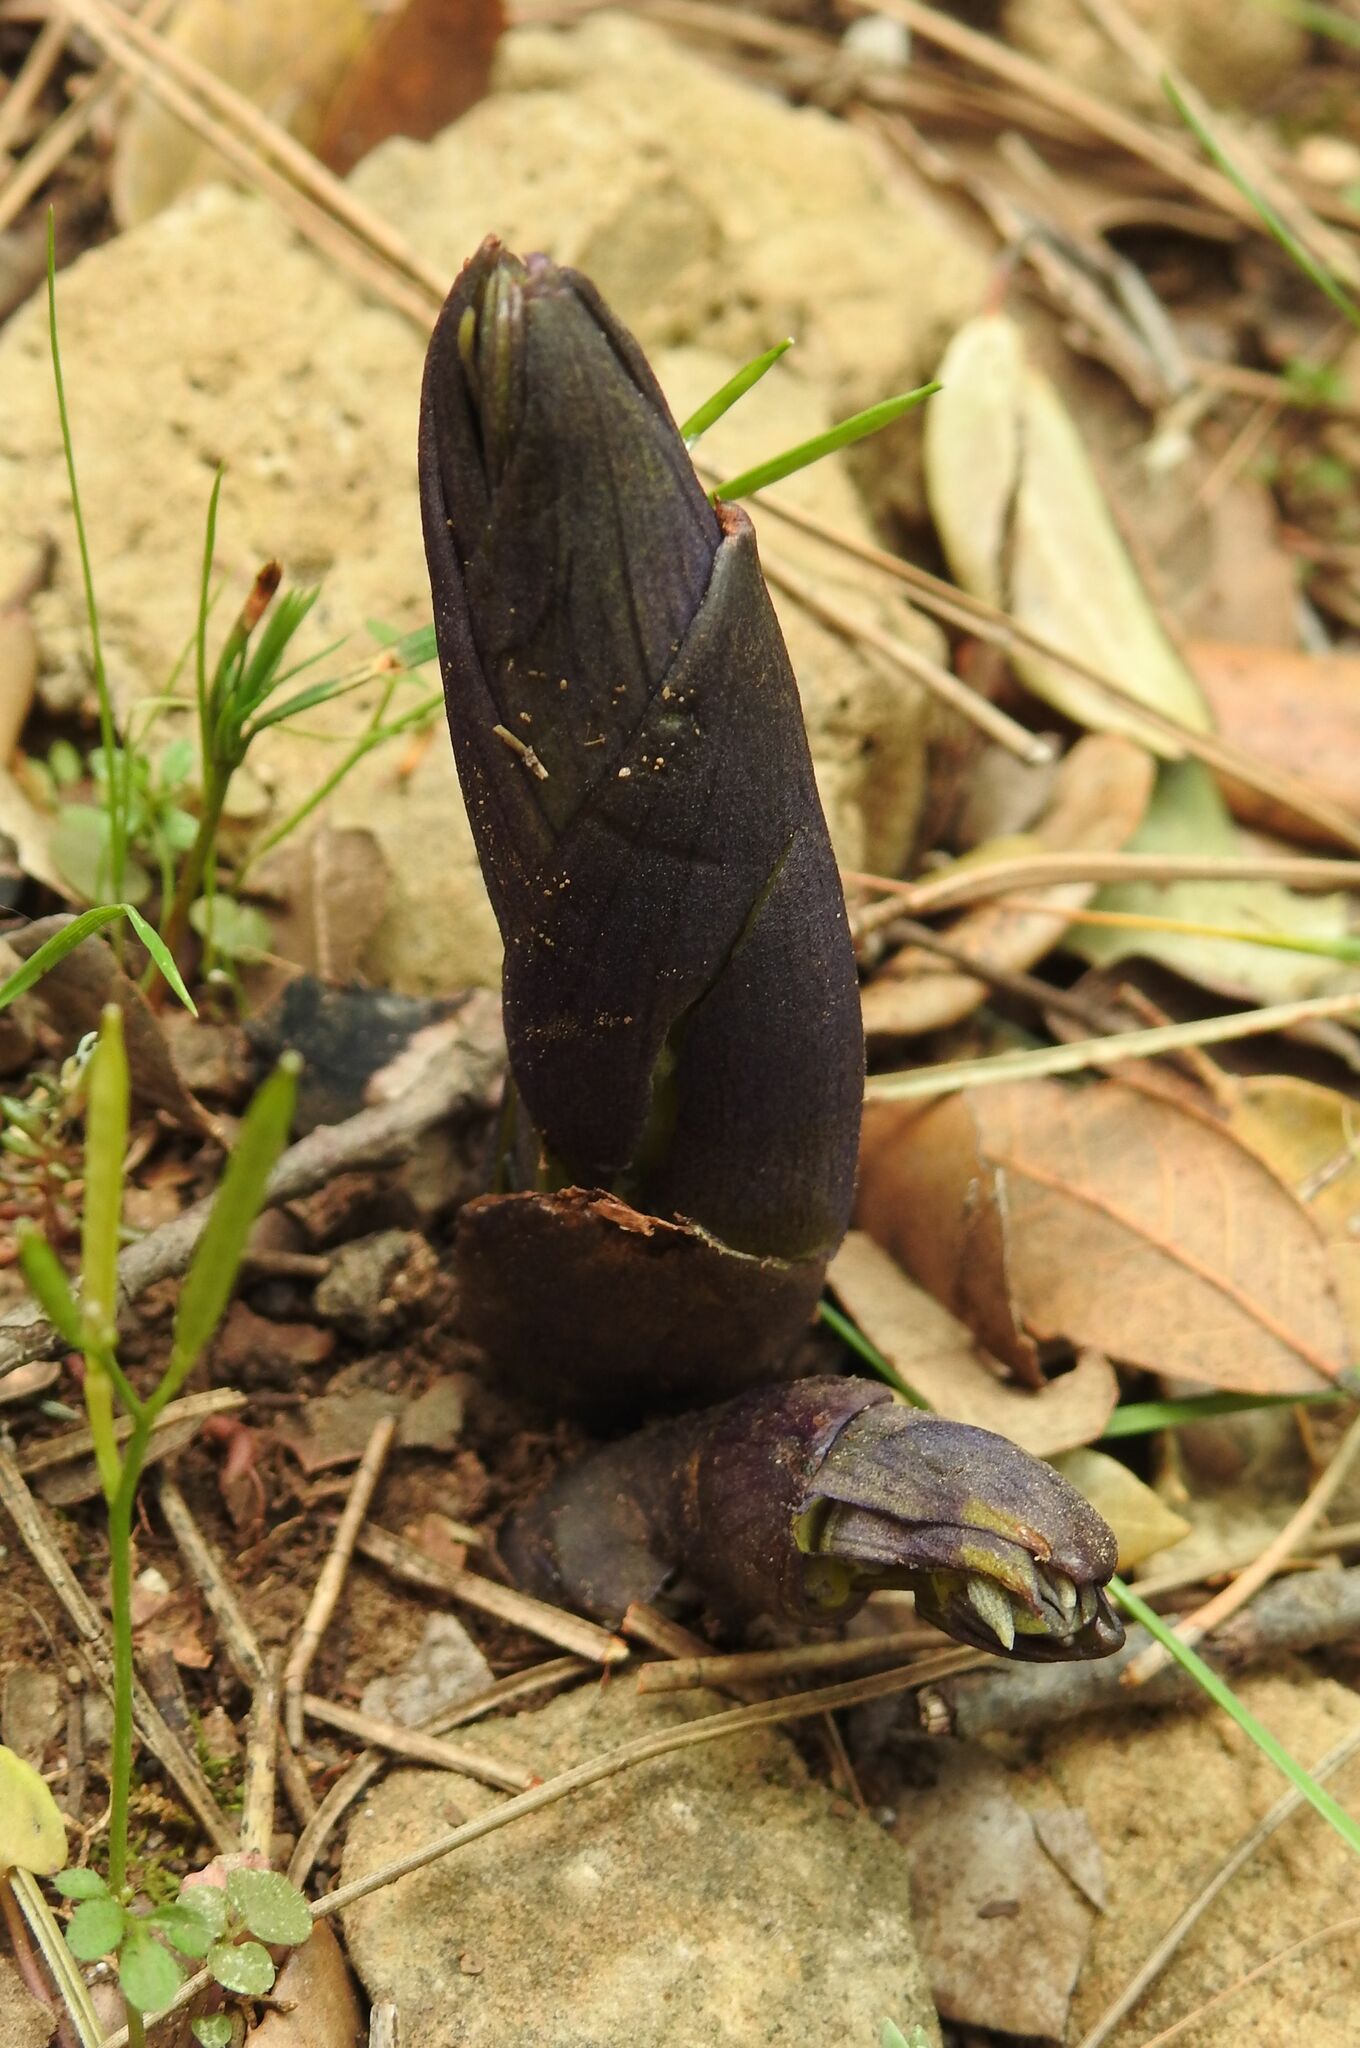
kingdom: Plantae
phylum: Tracheophyta
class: Liliopsida
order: Asparagales
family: Orchidaceae
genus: Limodorum
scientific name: Limodorum abortivum
